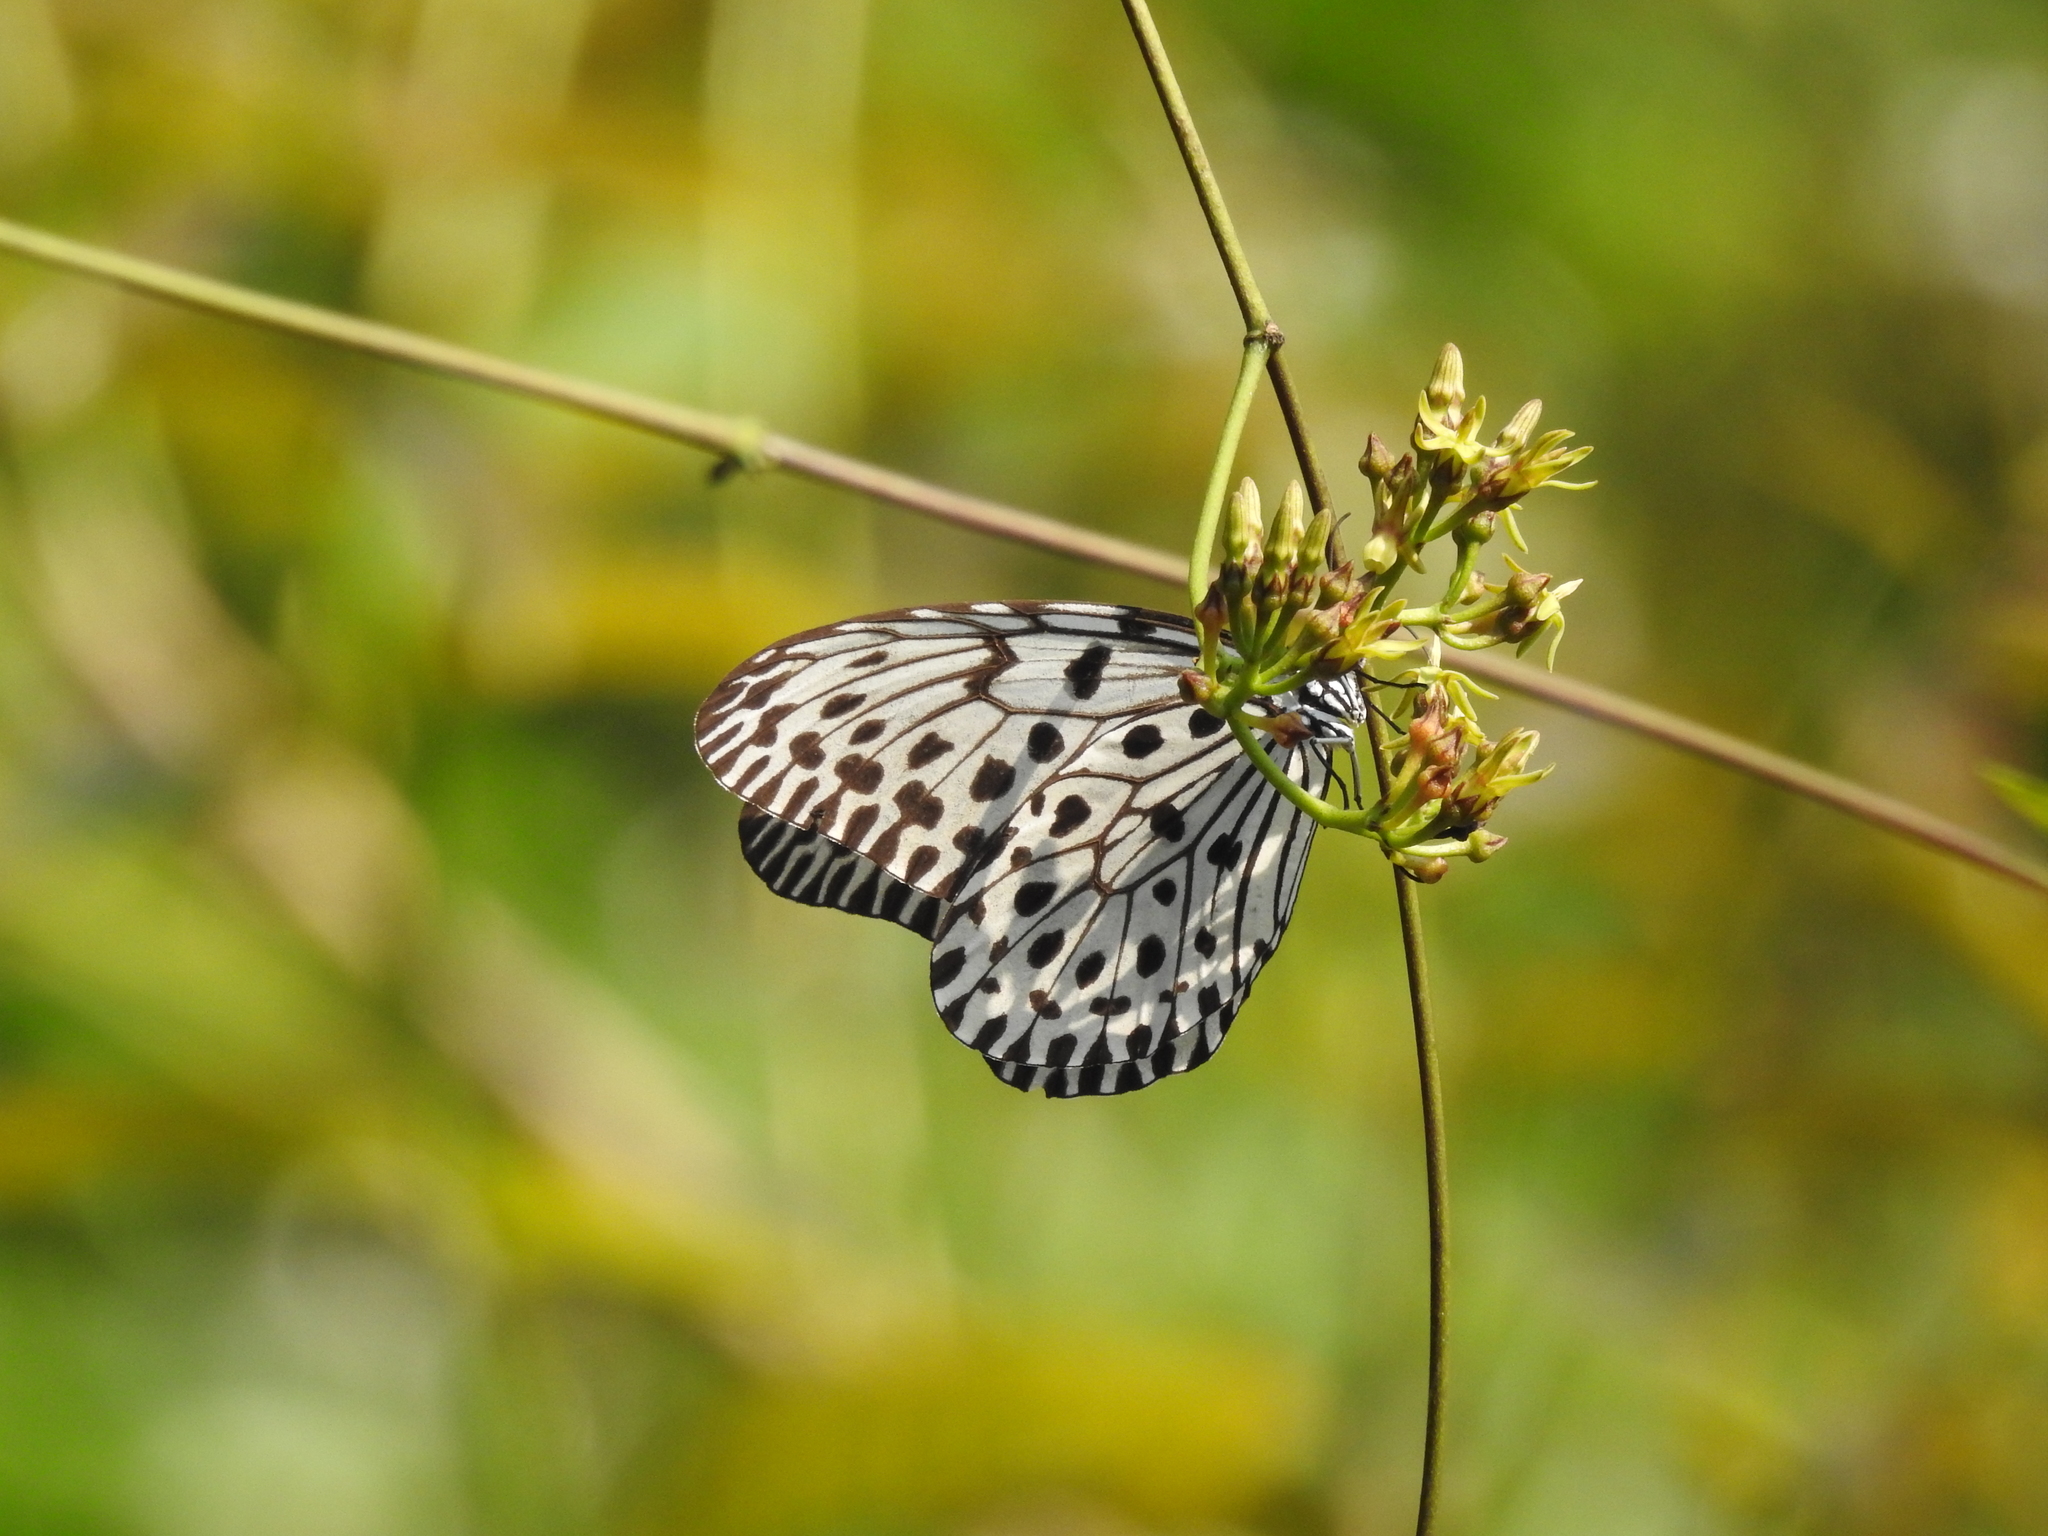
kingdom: Animalia
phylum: Arthropoda
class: Insecta
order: Lepidoptera
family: Nymphalidae
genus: Idea
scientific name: Idea malabarica
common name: Malabar tree-nymph
